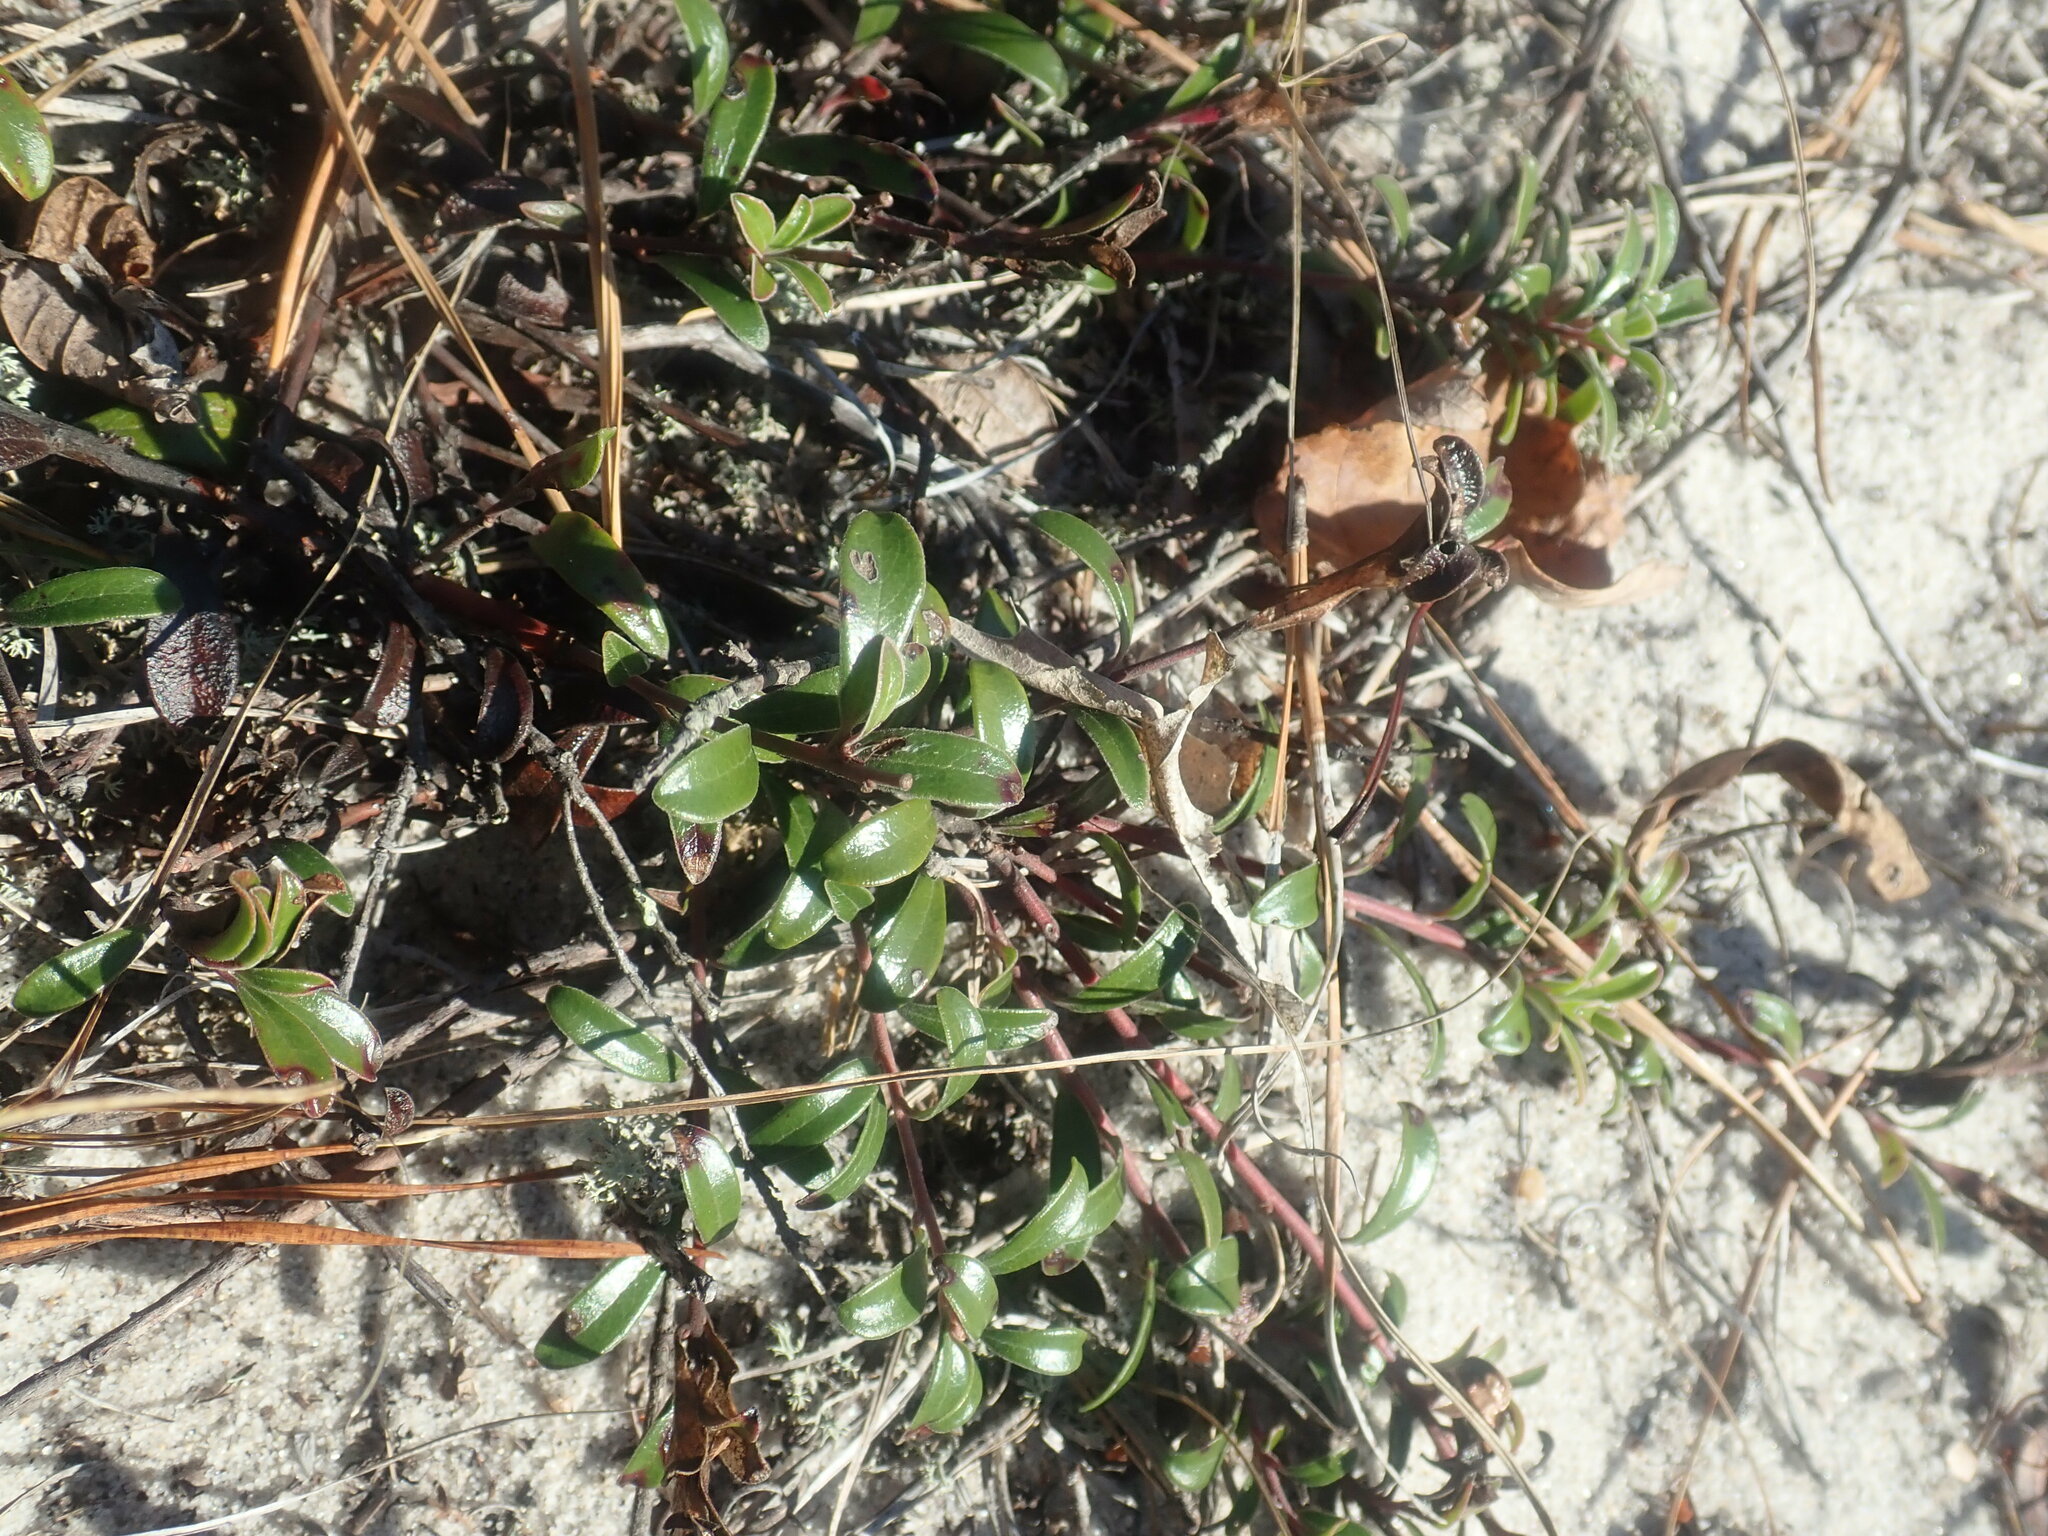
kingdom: Plantae
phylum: Tracheophyta
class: Magnoliopsida
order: Ericales
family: Ericaceae
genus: Arctostaphylos
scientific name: Arctostaphylos uva-ursi
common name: Bearberry
